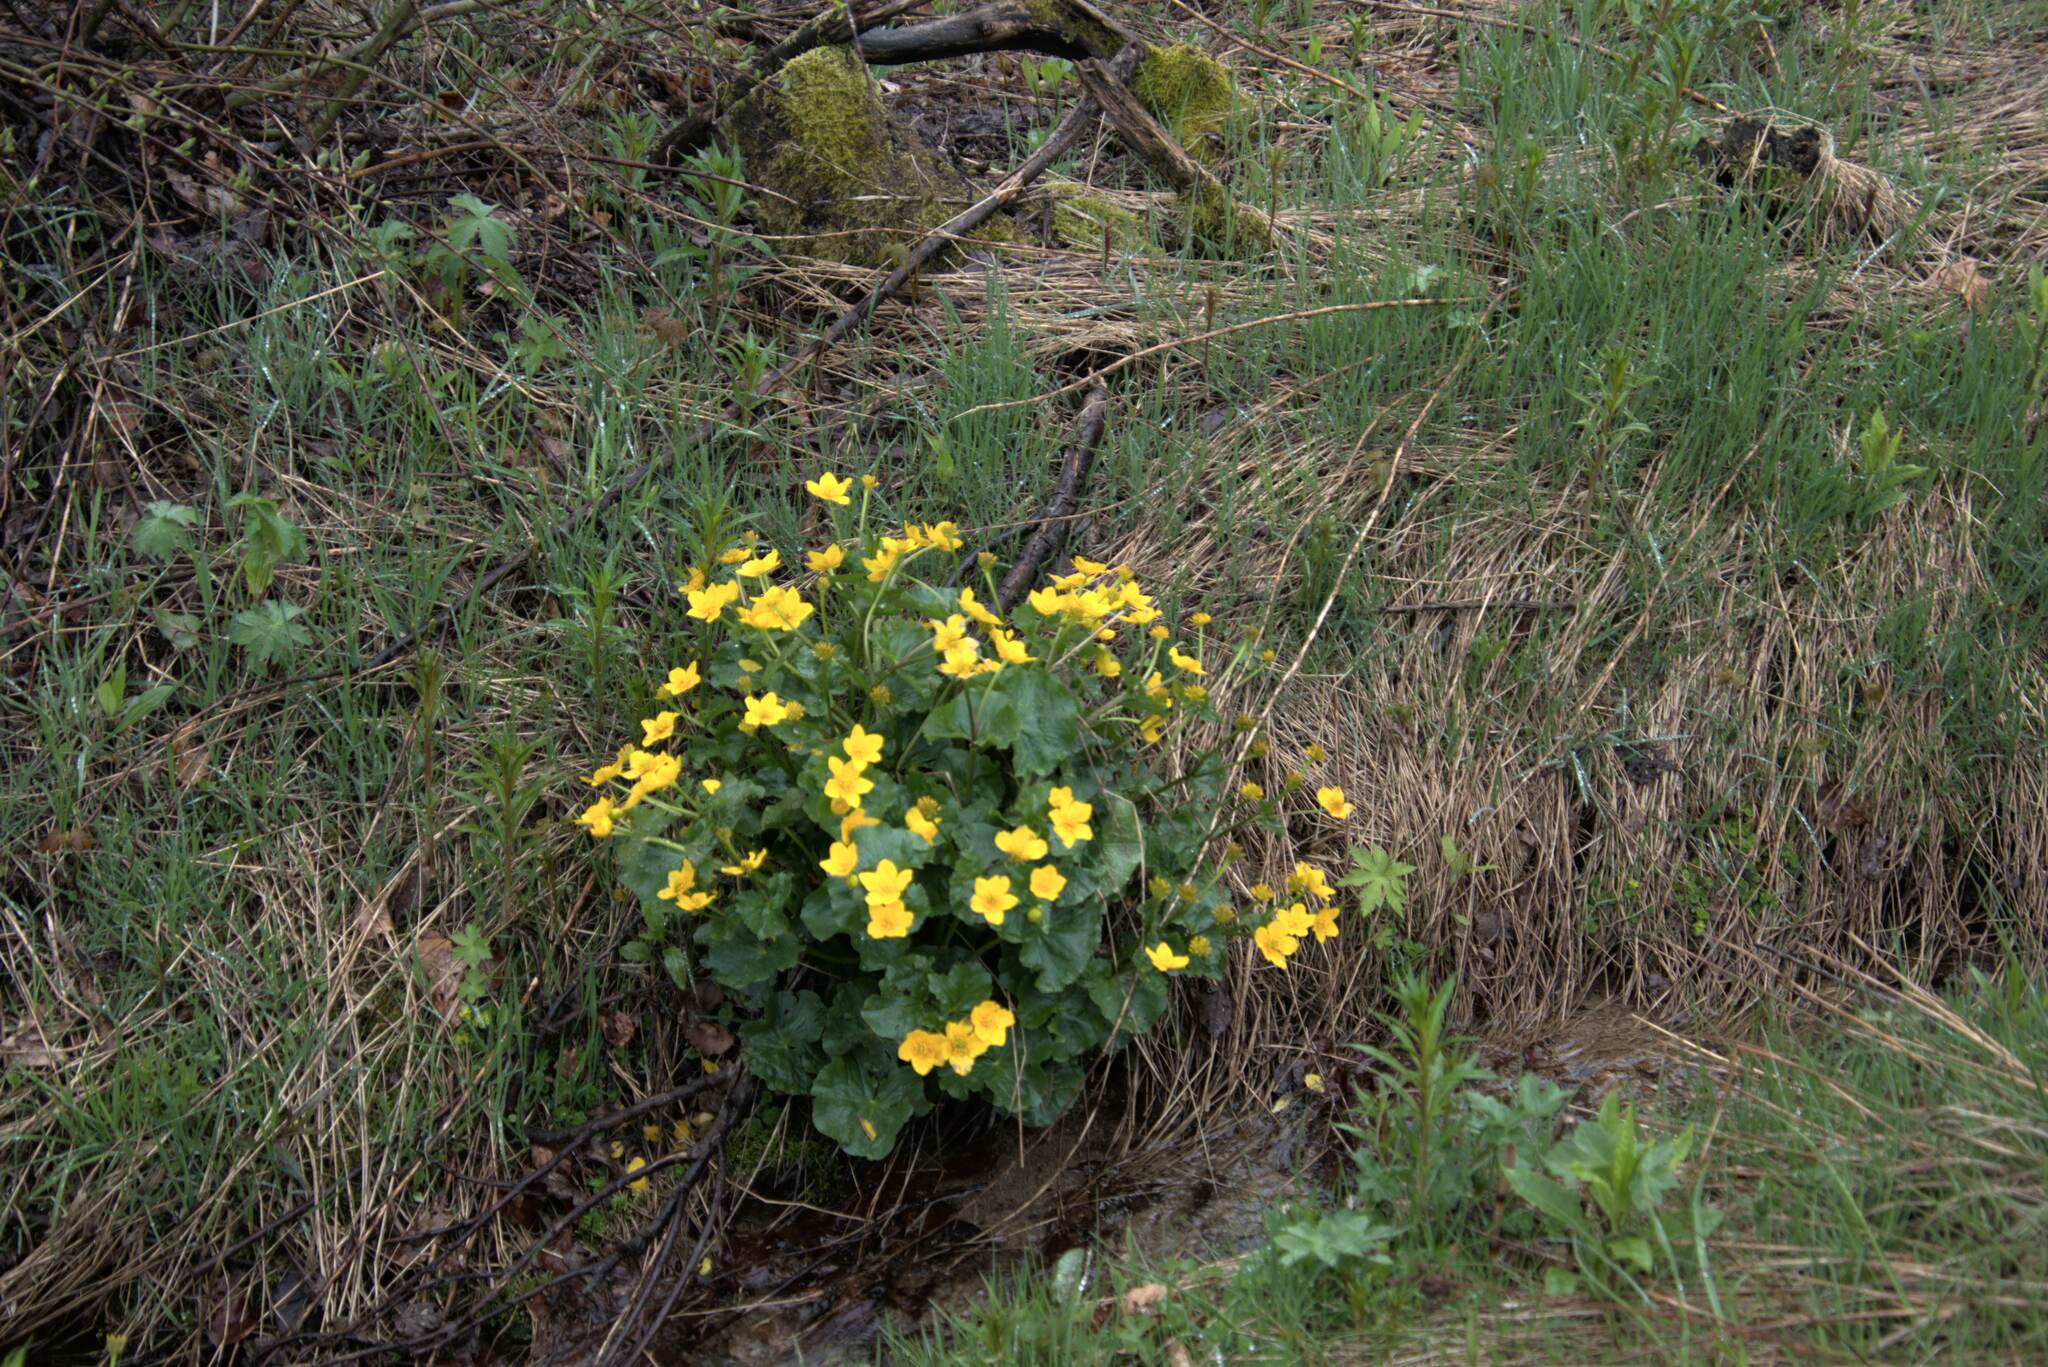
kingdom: Plantae
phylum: Tracheophyta
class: Magnoliopsida
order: Ranunculales
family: Ranunculaceae
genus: Caltha
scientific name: Caltha palustris
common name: Marsh marigold
